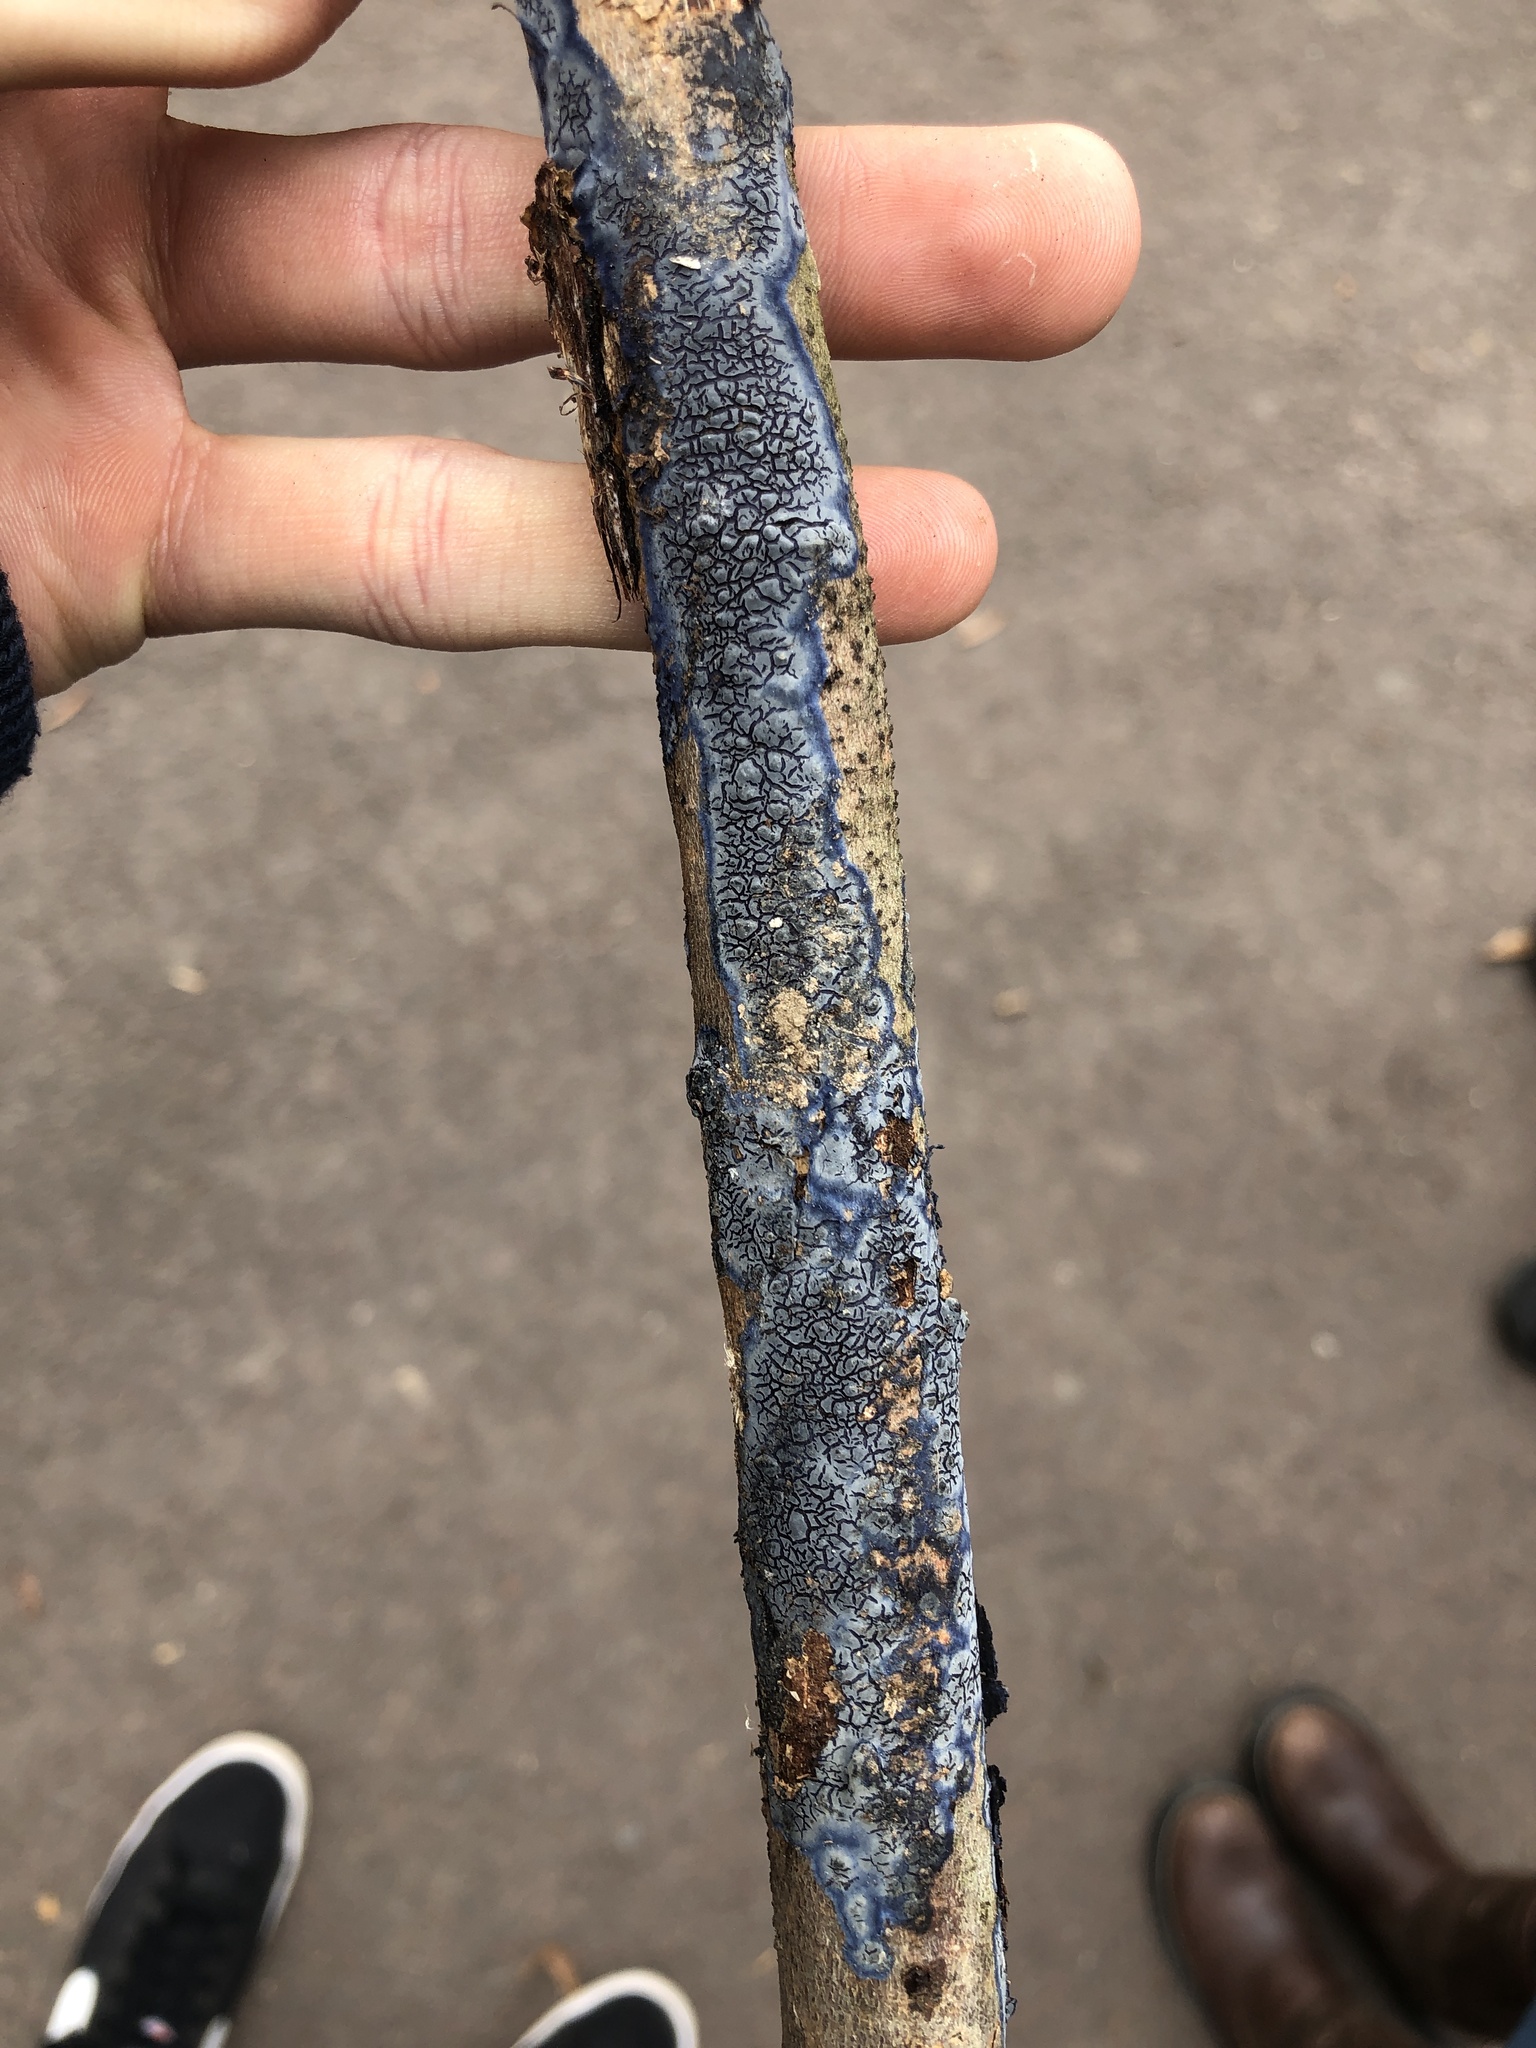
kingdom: Fungi
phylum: Basidiomycota
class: Agaricomycetes
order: Polyporales
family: Phanerochaetaceae
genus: Terana
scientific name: Terana coerulea
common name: Cobalt crust
